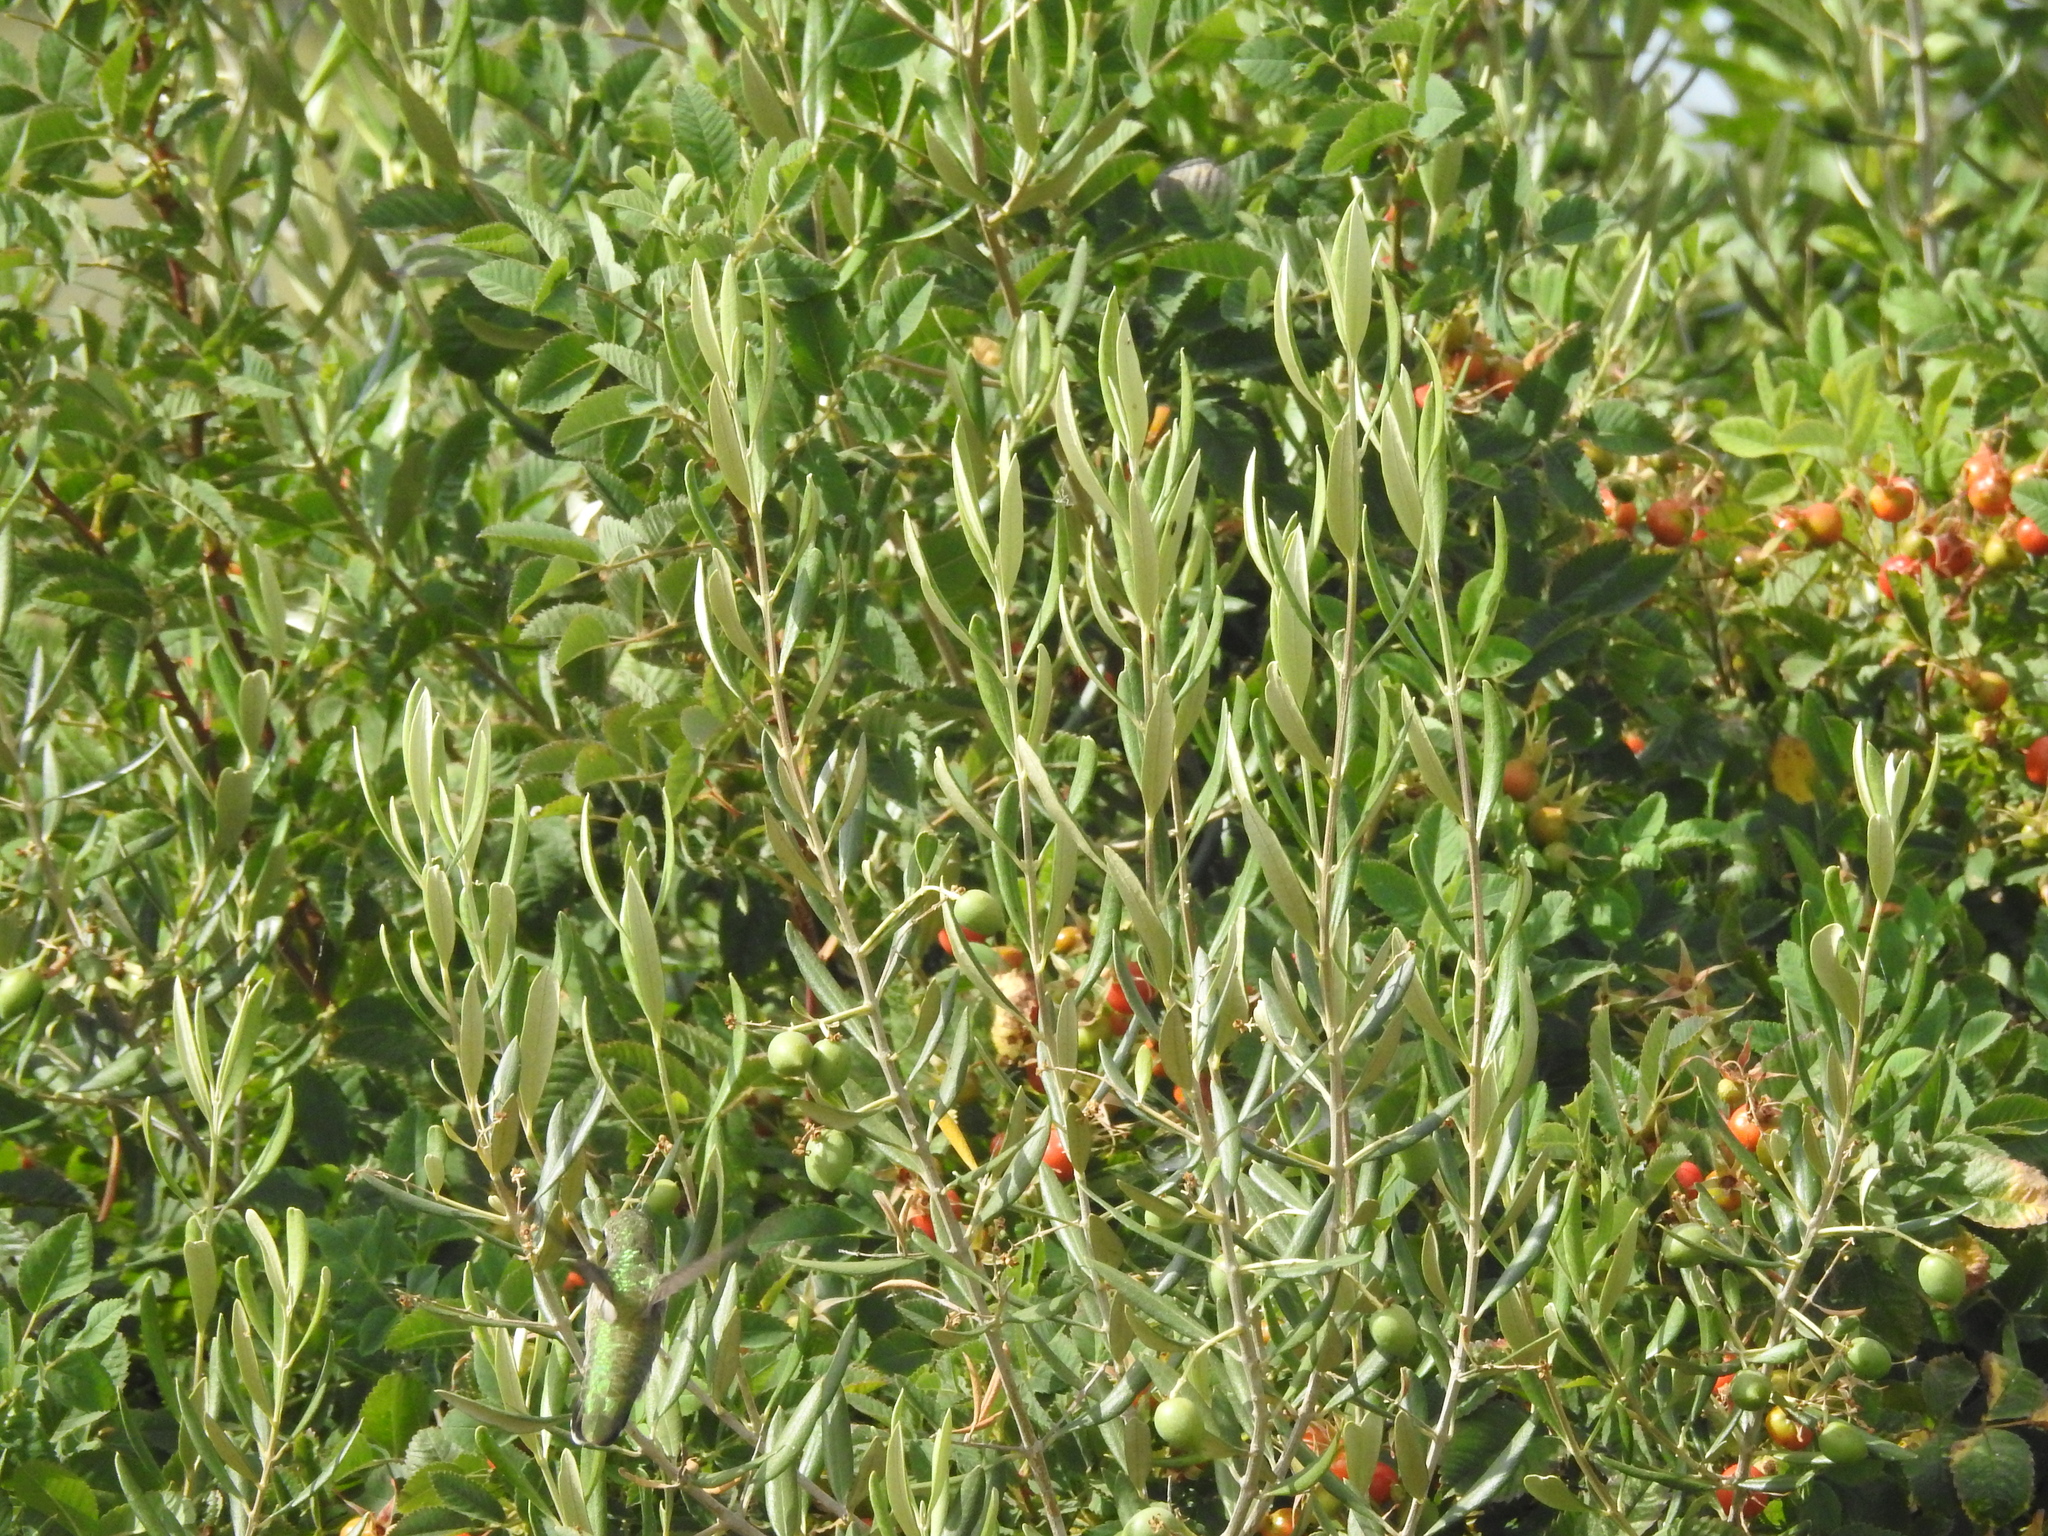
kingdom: Plantae
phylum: Tracheophyta
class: Magnoliopsida
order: Lamiales
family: Oleaceae
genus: Olea
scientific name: Olea europaea
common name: Olive
